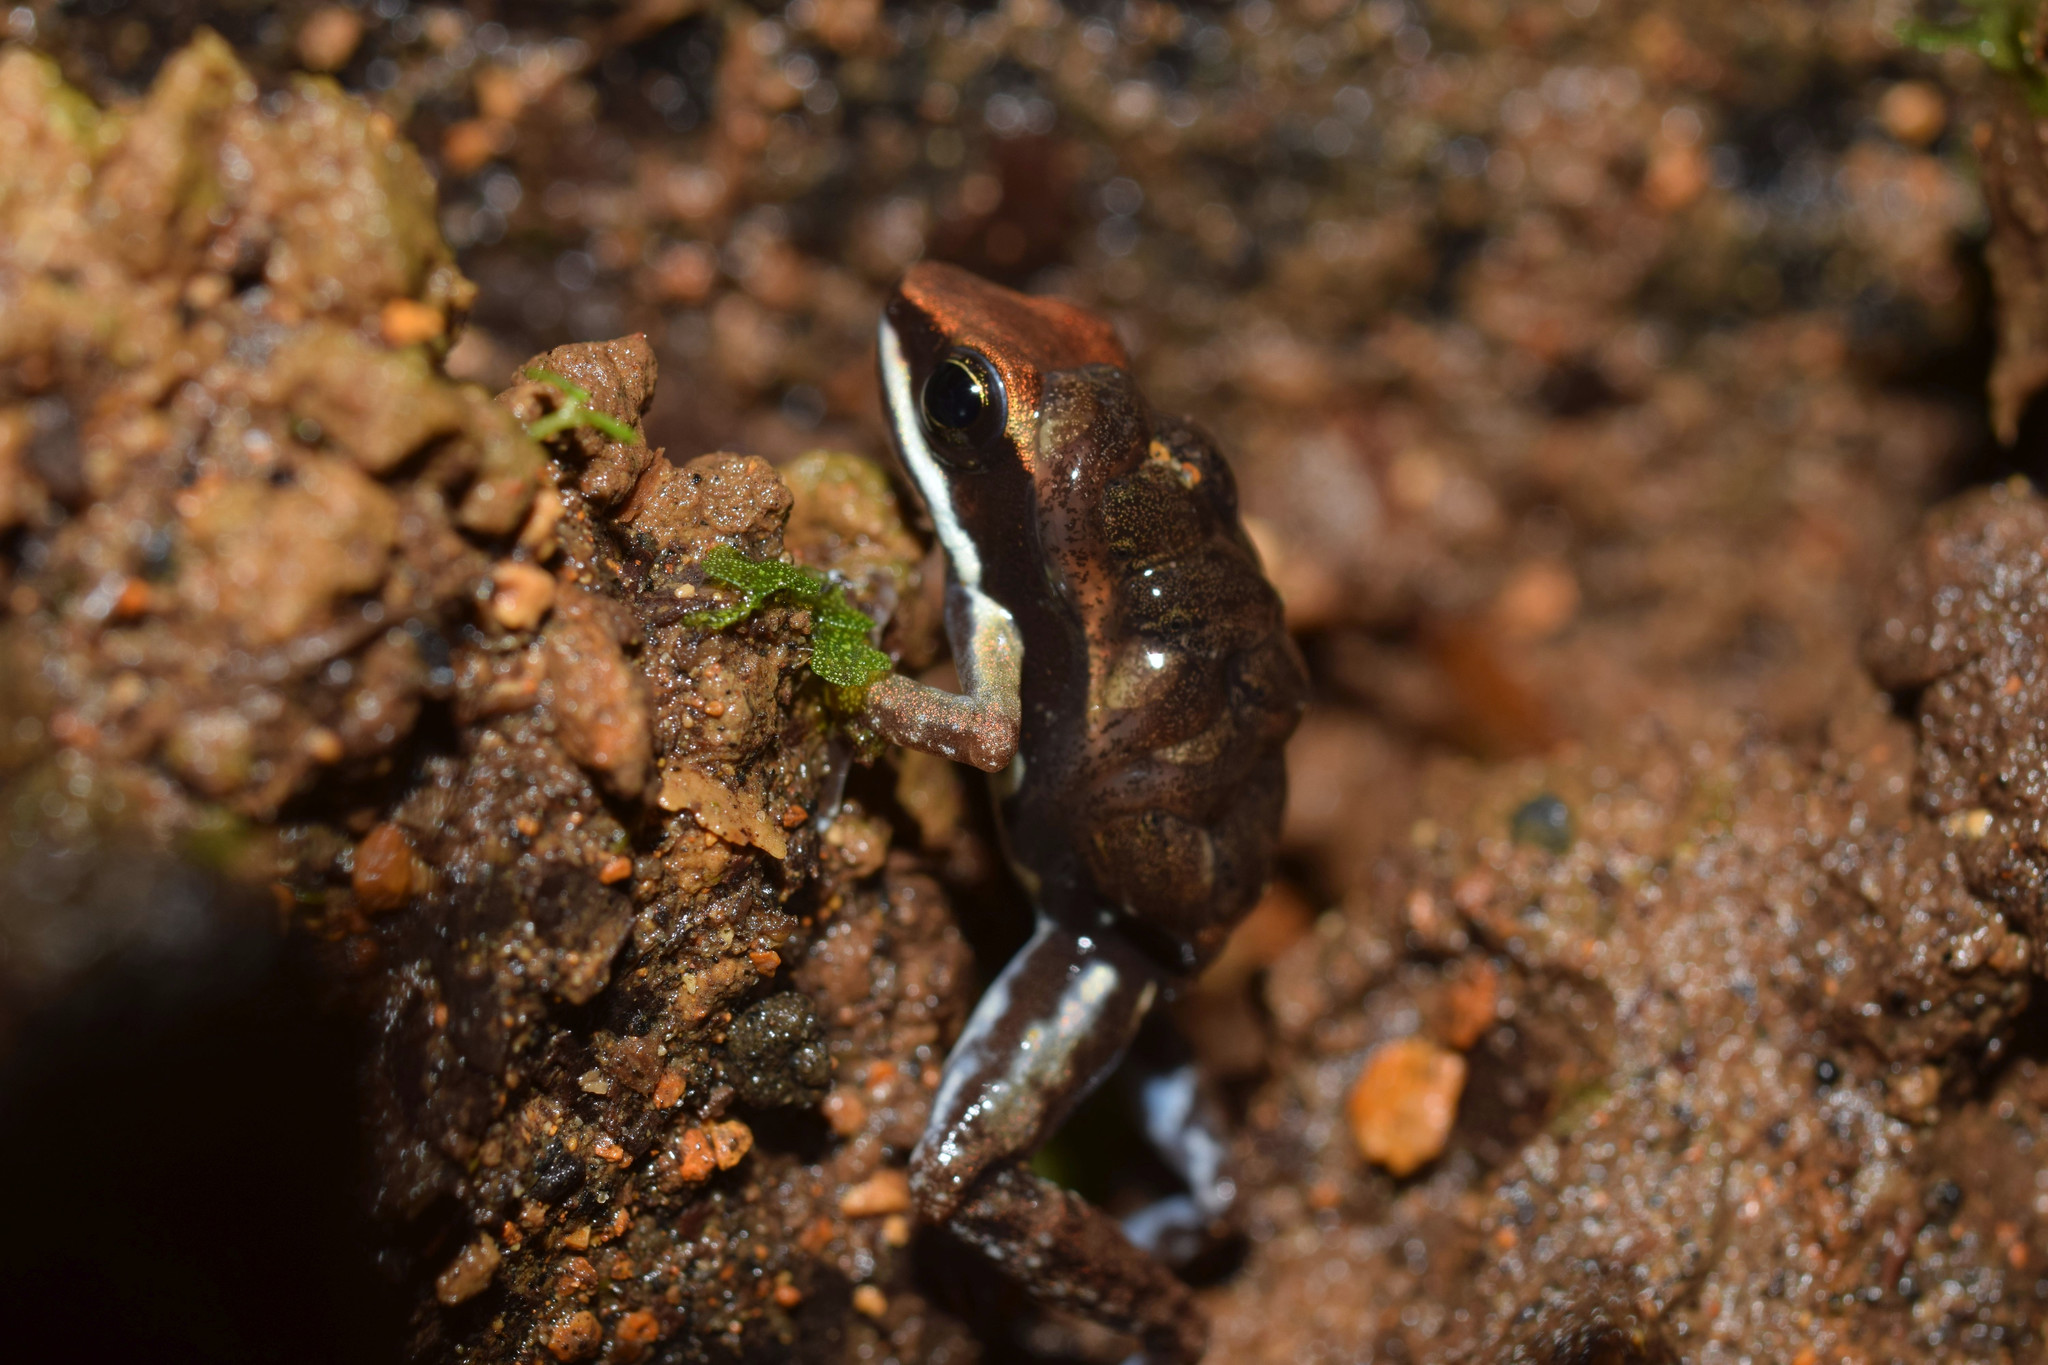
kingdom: Animalia
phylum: Chordata
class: Amphibia
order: Anura
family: Dendrobatidae
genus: Epipedobates
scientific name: Epipedobates boulengeri
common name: Marbled poison-arrow frog
